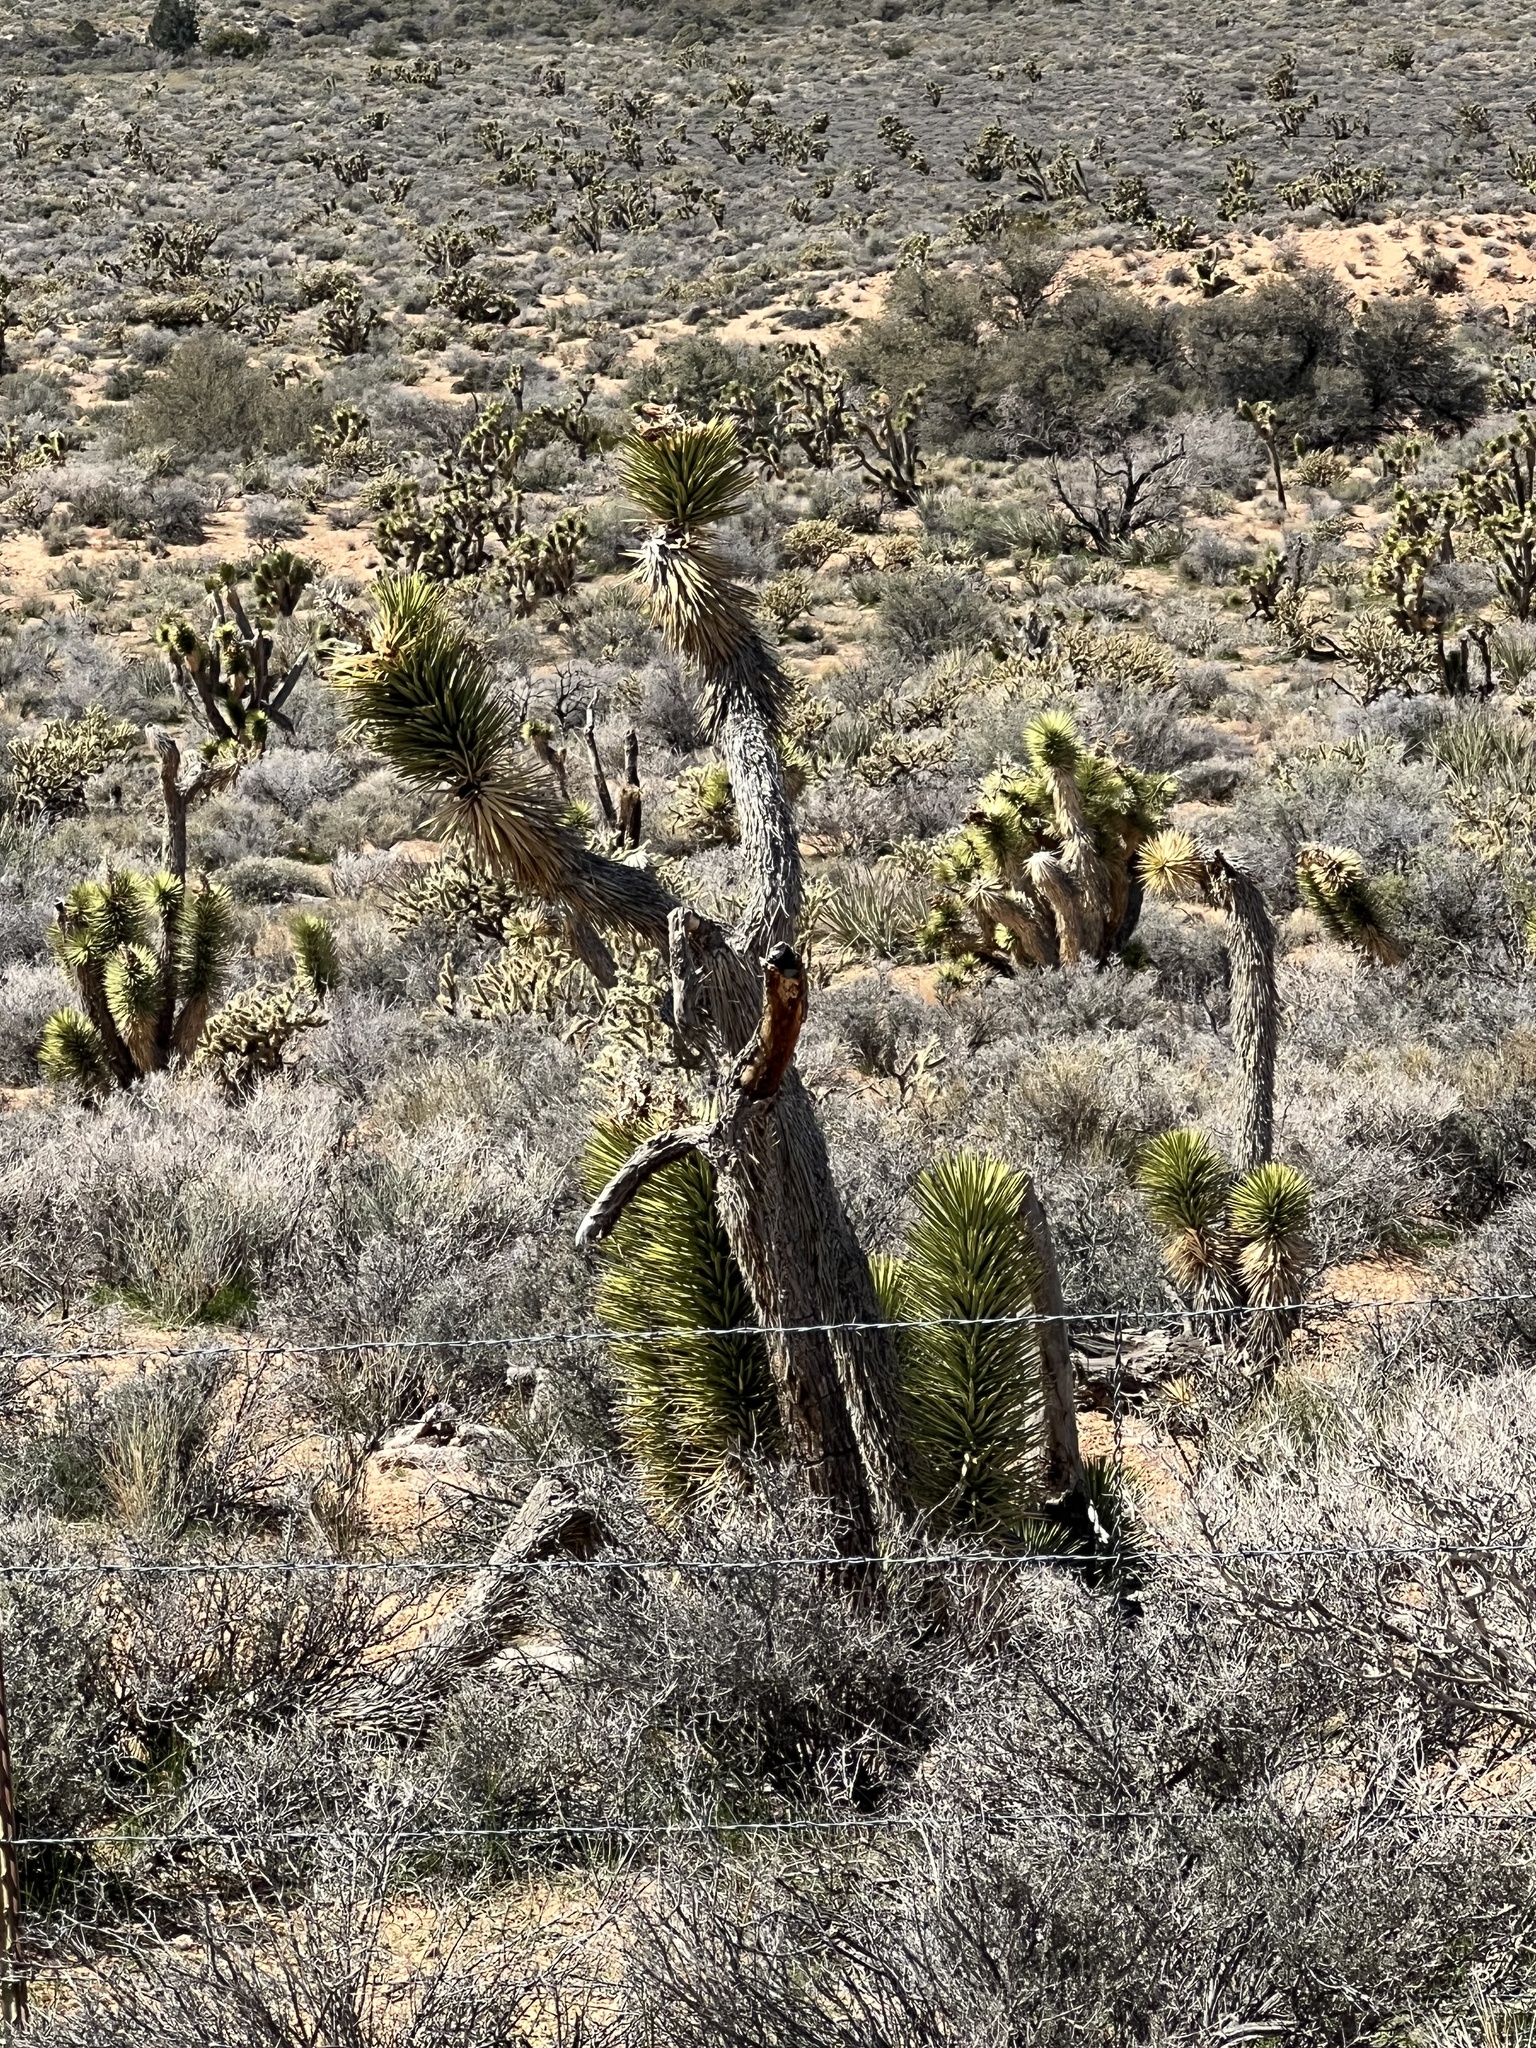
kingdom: Plantae
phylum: Tracheophyta
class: Liliopsida
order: Asparagales
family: Asparagaceae
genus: Yucca
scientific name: Yucca brevifolia
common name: Joshua tree
